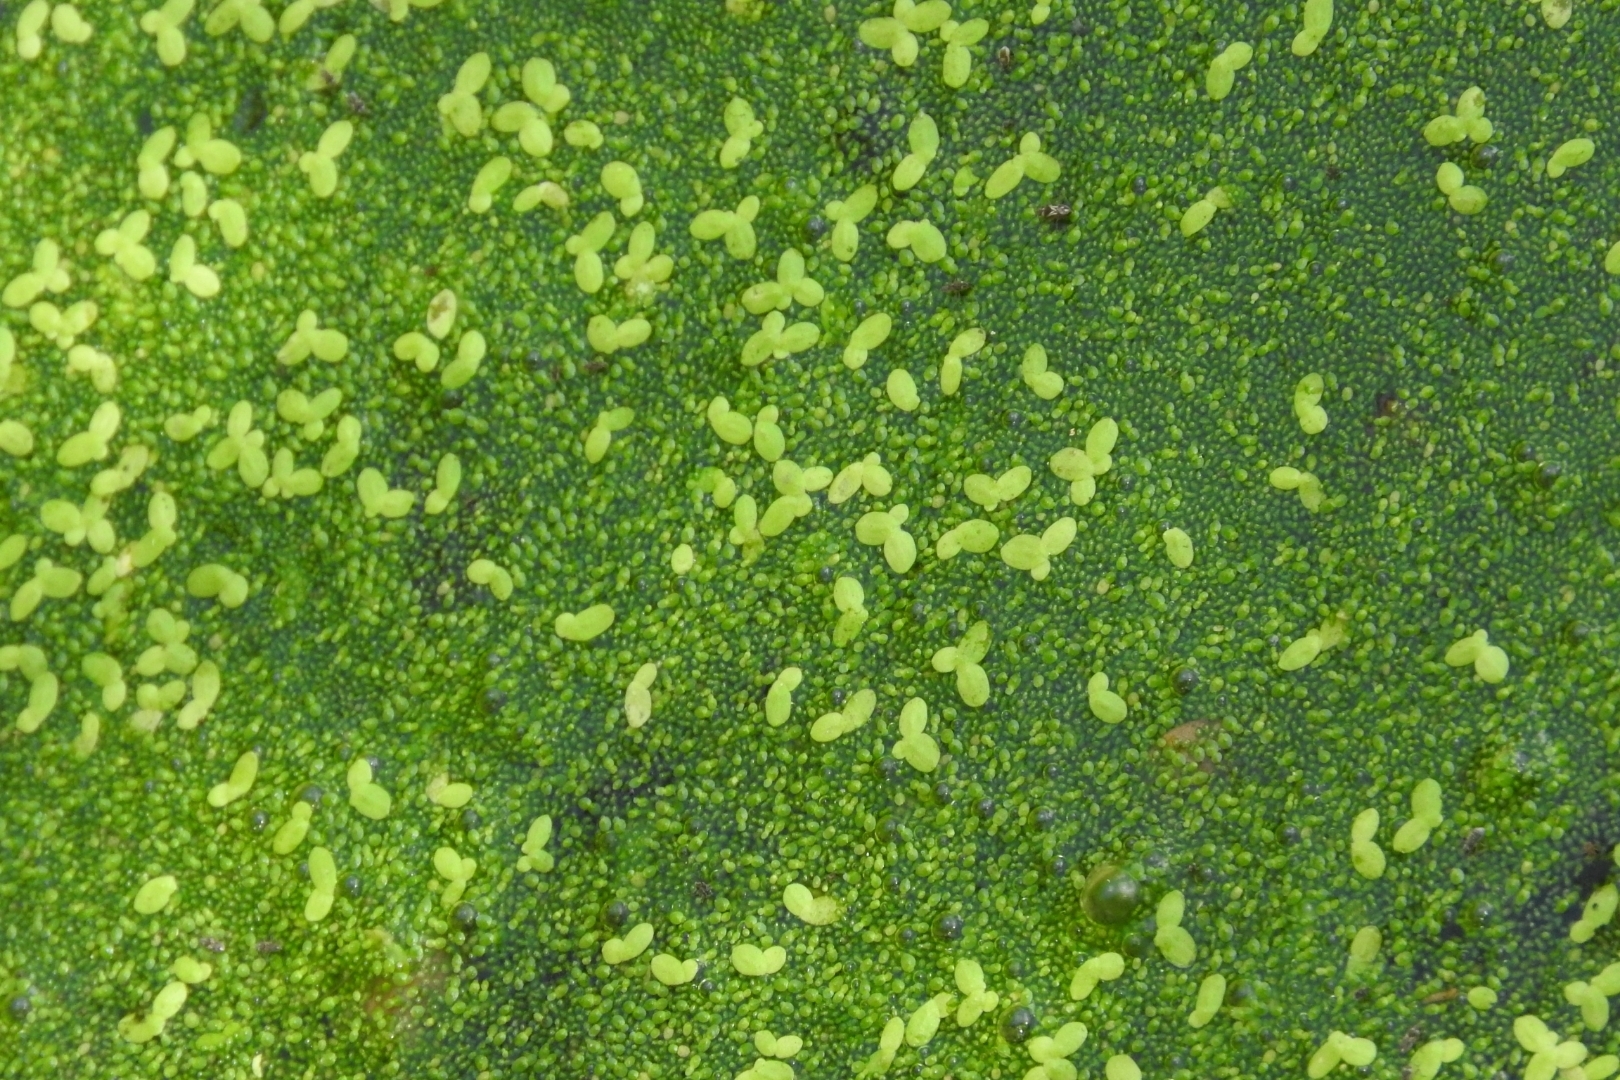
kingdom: Plantae
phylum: Tracheophyta
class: Liliopsida
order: Alismatales
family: Araceae
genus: Lemna
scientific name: Lemna minor
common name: Common duckweed
